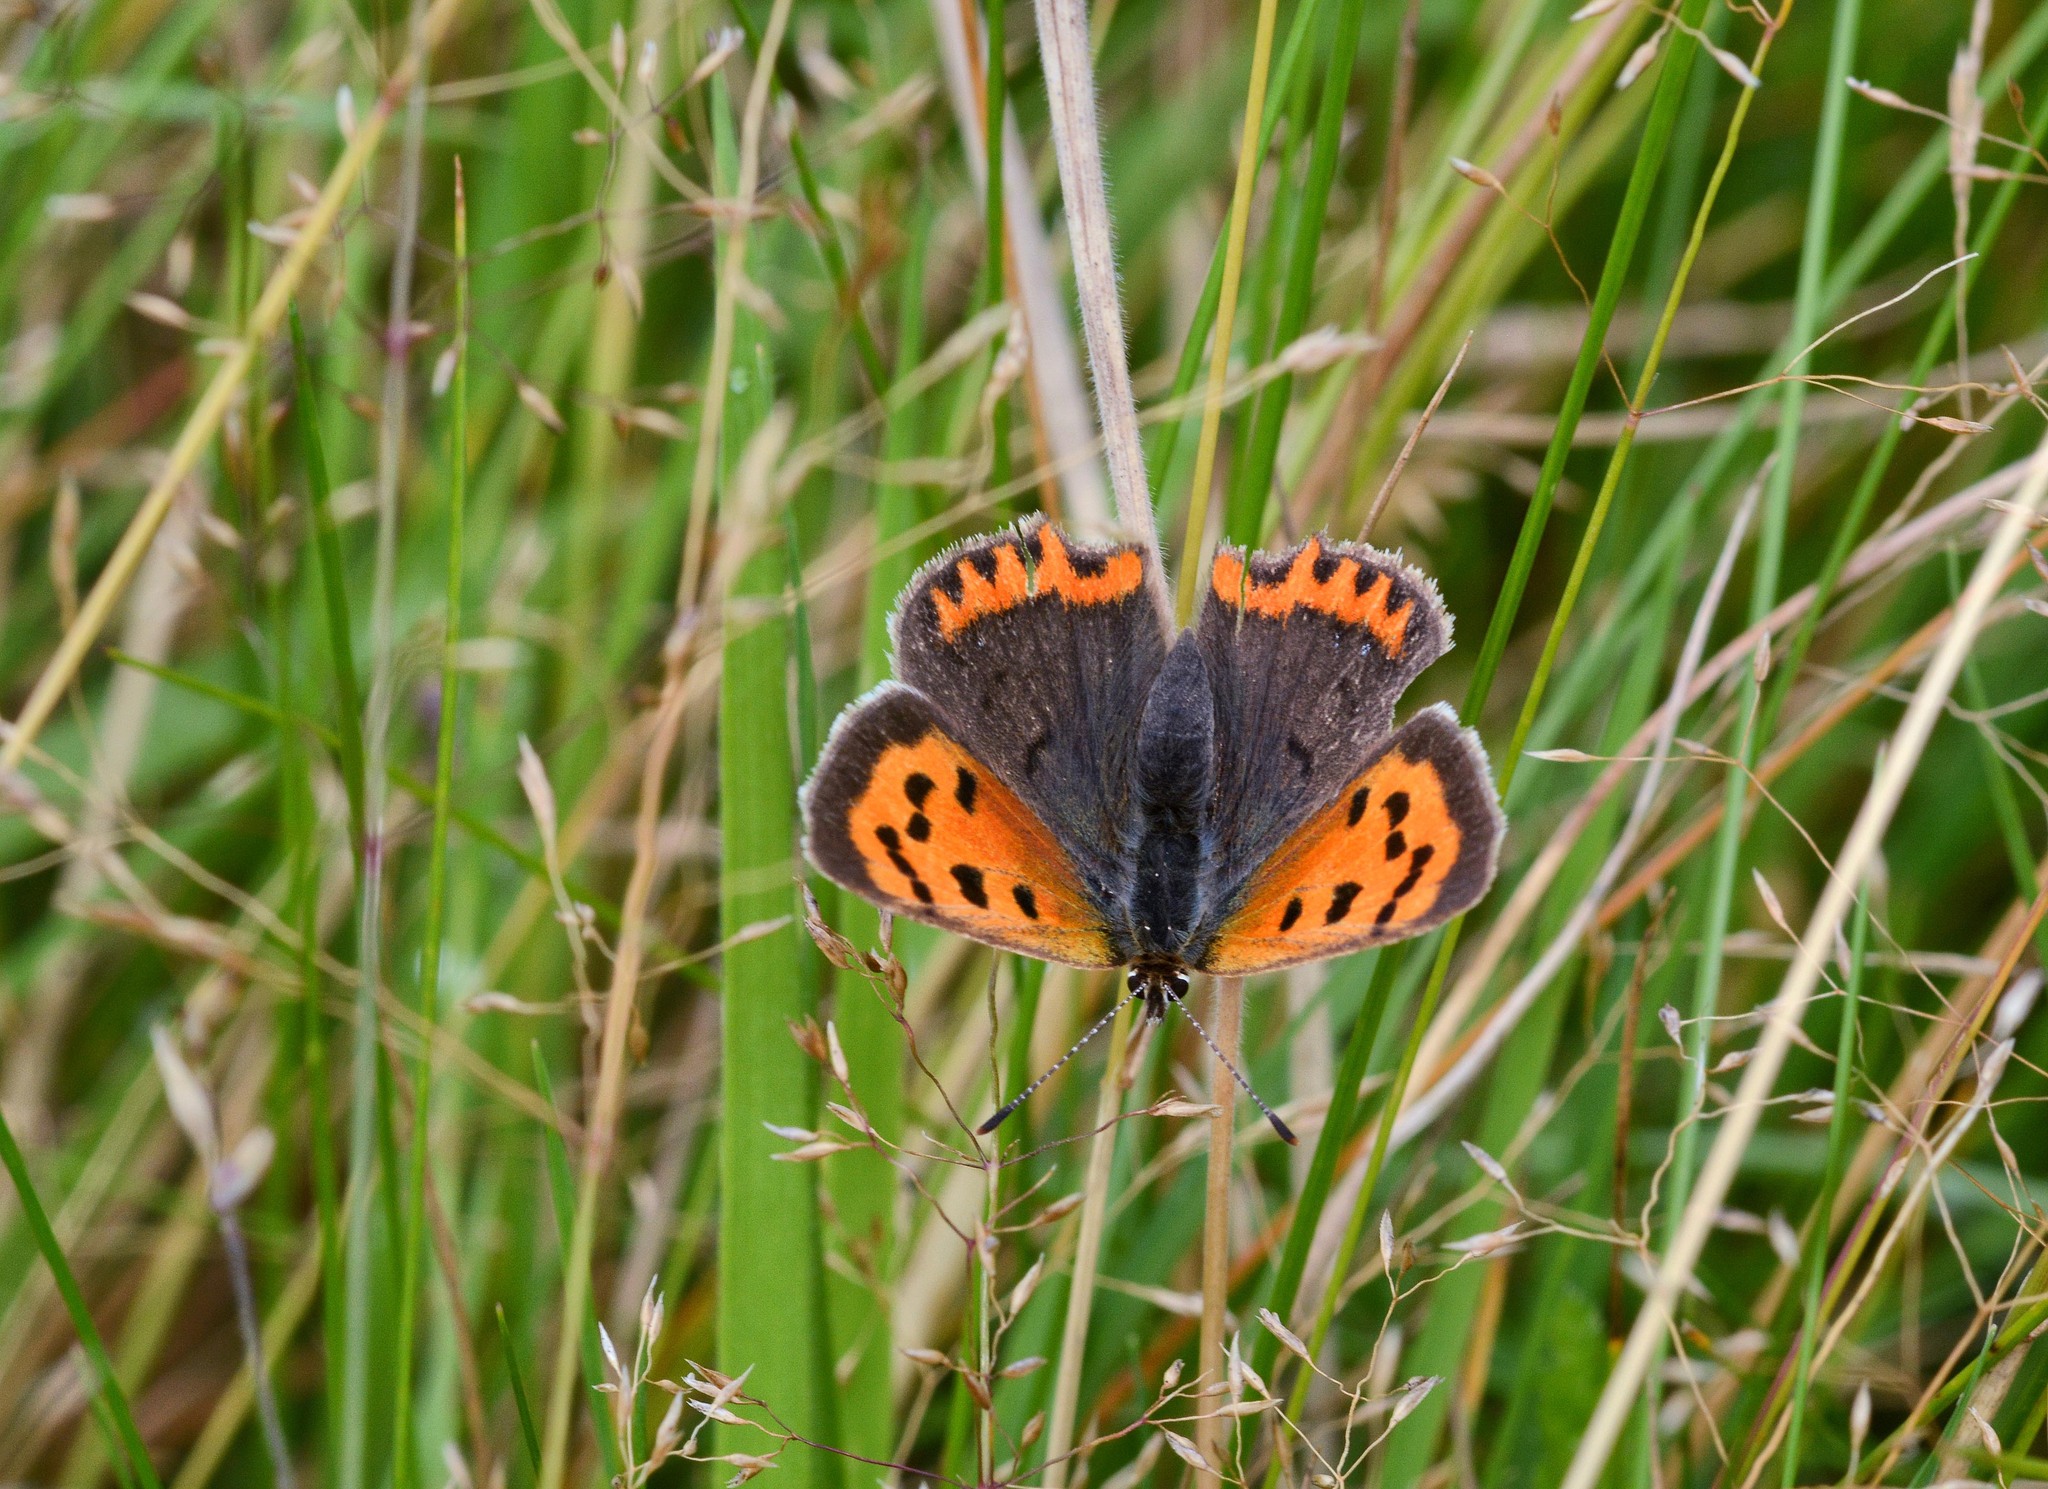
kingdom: Animalia
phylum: Arthropoda
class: Insecta
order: Lepidoptera
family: Lycaenidae
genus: Lycaena
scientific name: Lycaena phlaeas
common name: Small copper
